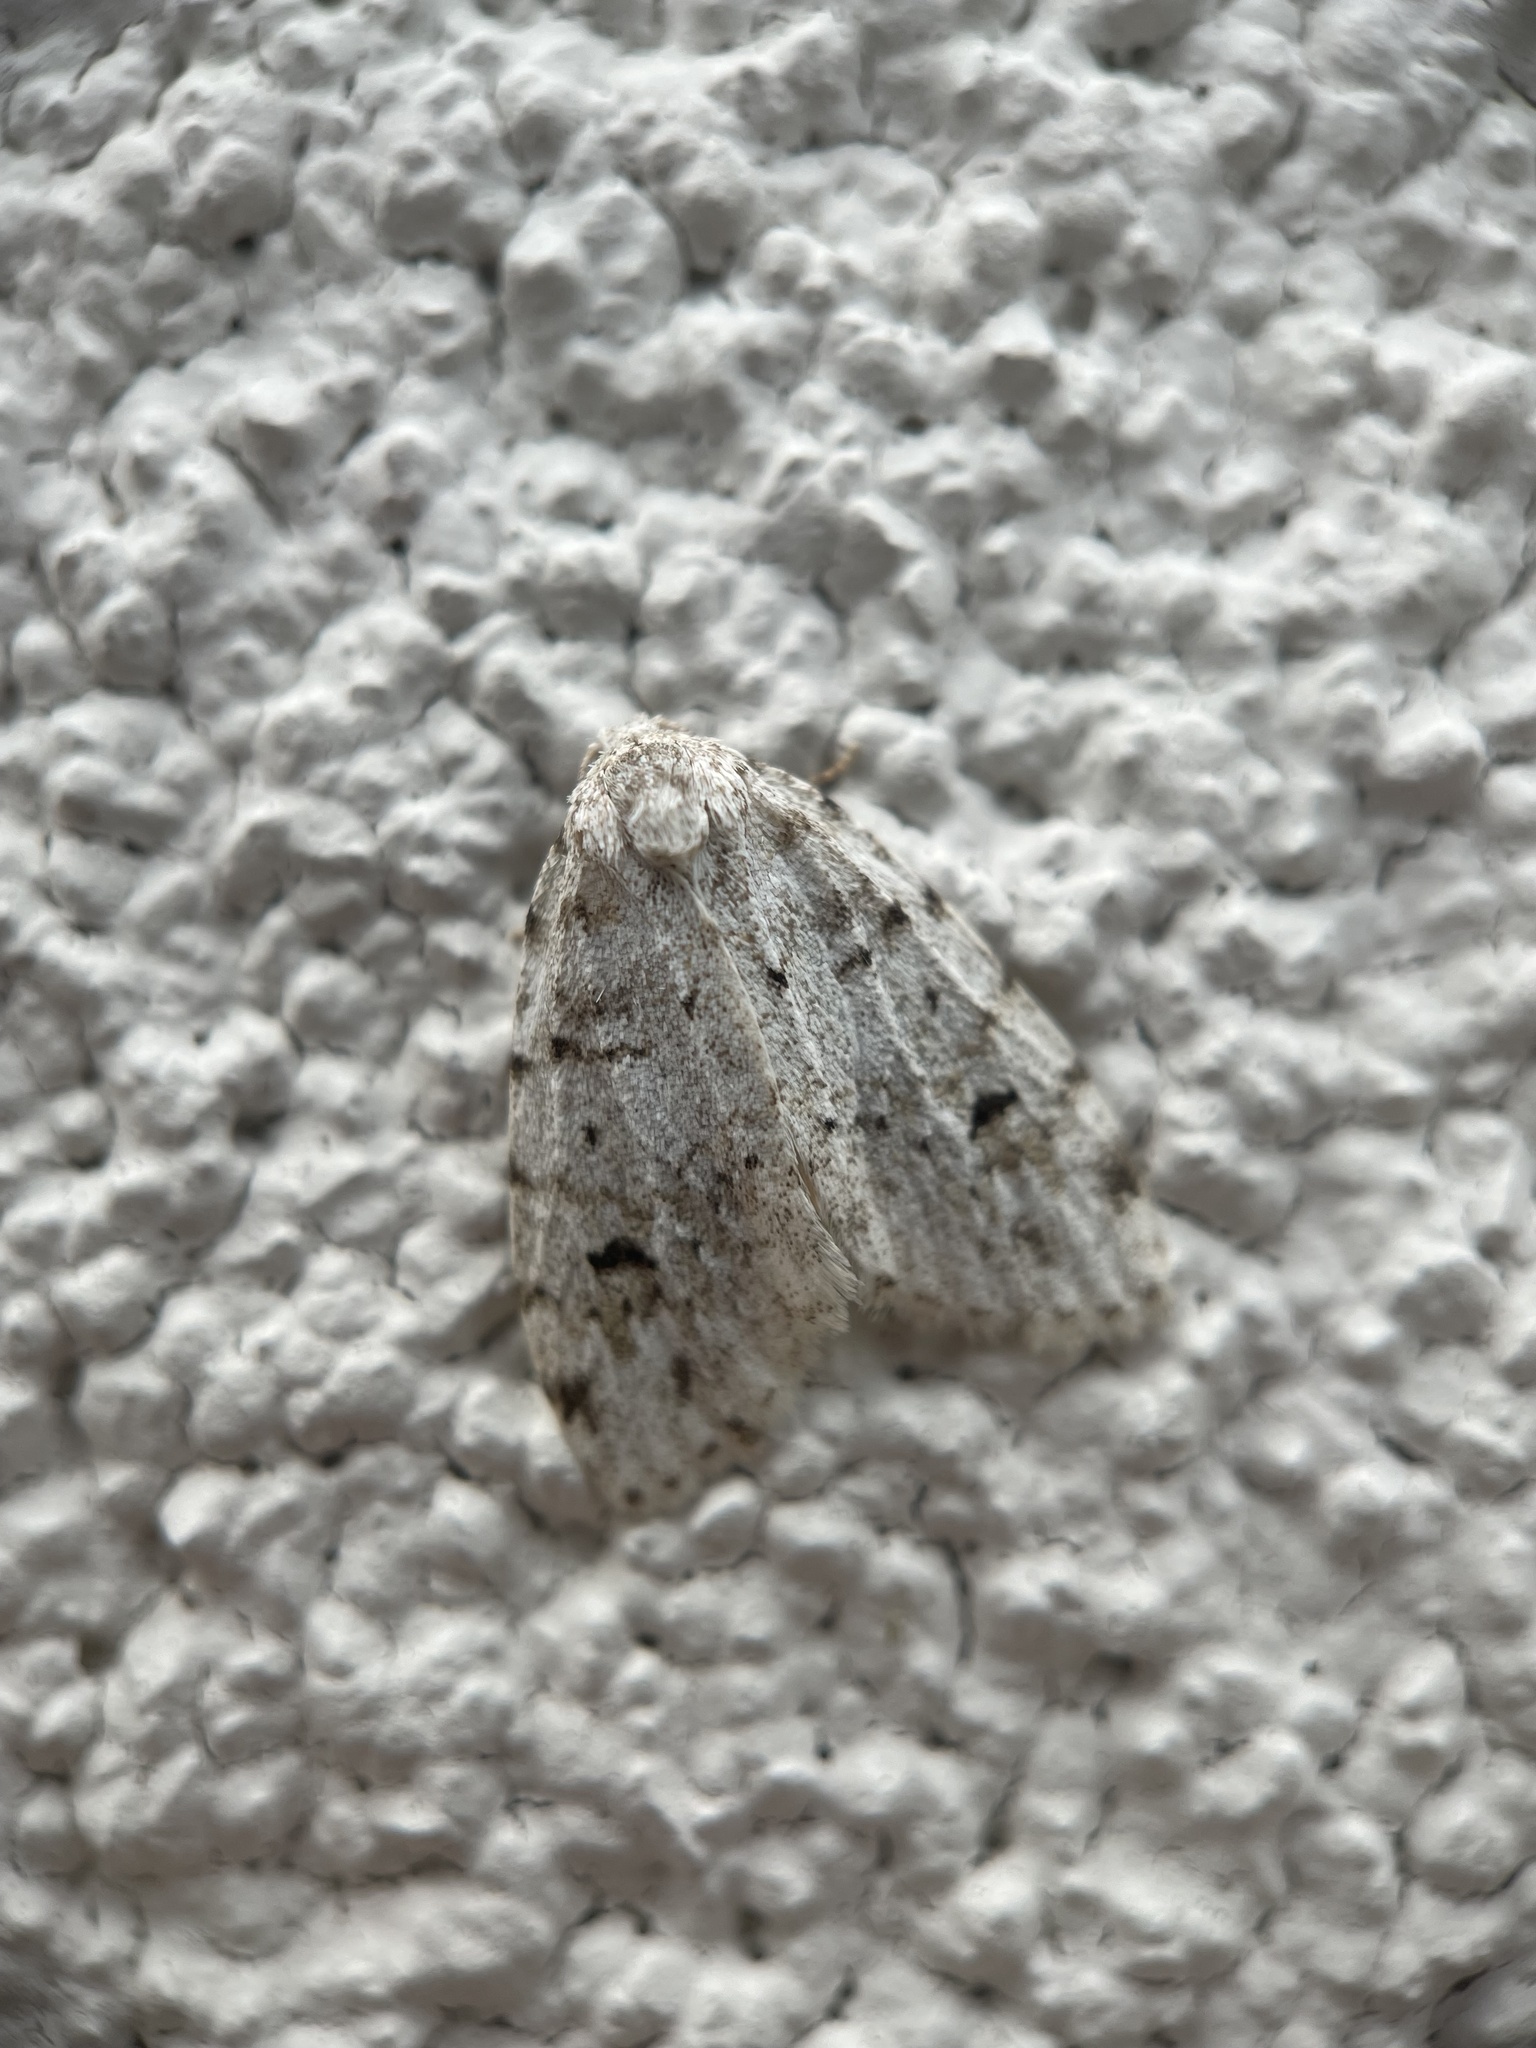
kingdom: Animalia
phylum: Arthropoda
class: Insecta
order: Lepidoptera
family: Erebidae
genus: Clemensia
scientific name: Clemensia albata
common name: Little white lichen moth
